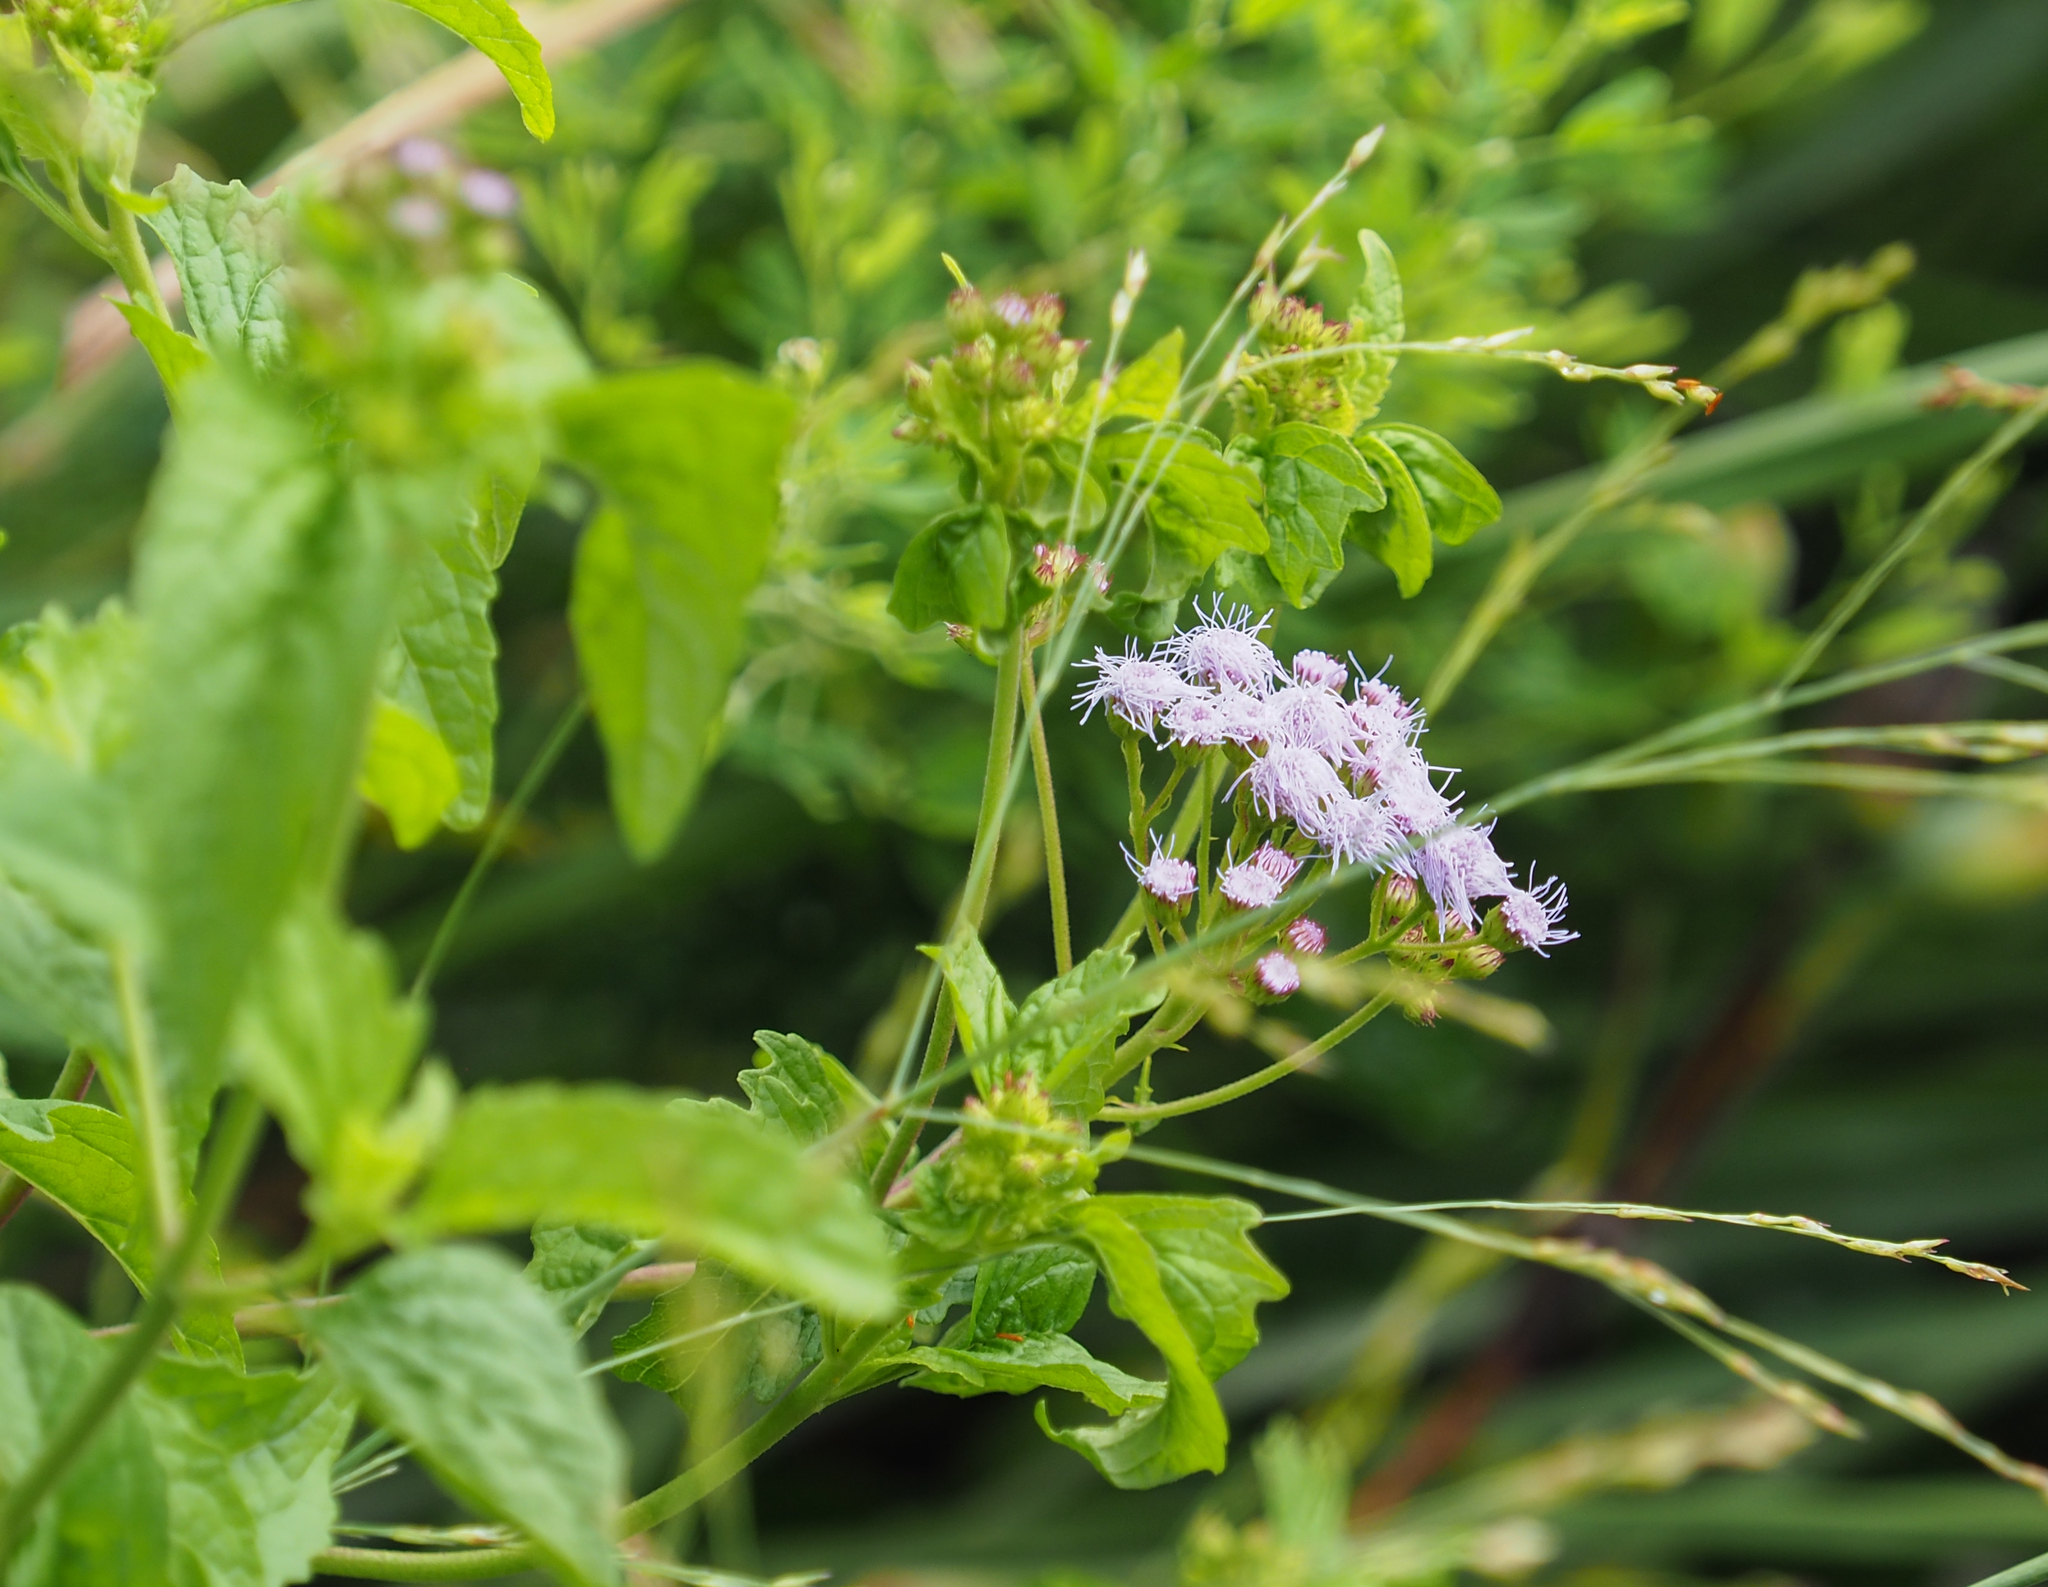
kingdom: Plantae
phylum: Tracheophyta
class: Magnoliopsida
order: Asterales
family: Asteraceae
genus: Conoclinium
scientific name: Conoclinium coelestinum
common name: Blue mistflower
